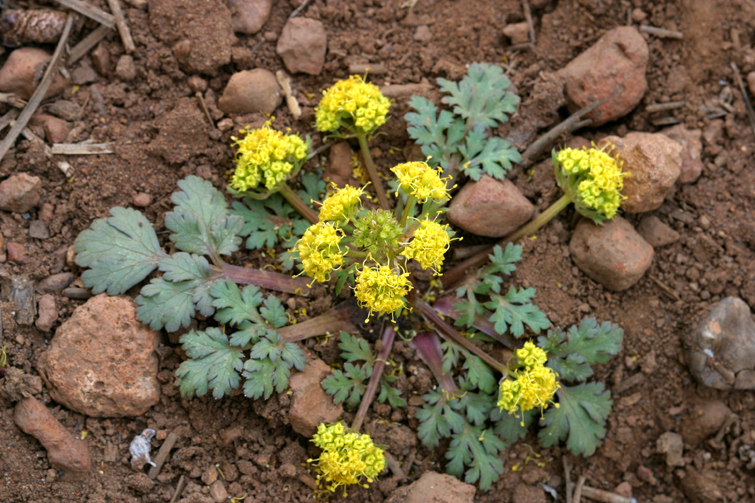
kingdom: Plantae
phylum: Tracheophyta
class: Magnoliopsida
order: Apiales
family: Apiaceae
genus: Sanicula
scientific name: Sanicula graveolens
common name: Sierra sanicle
